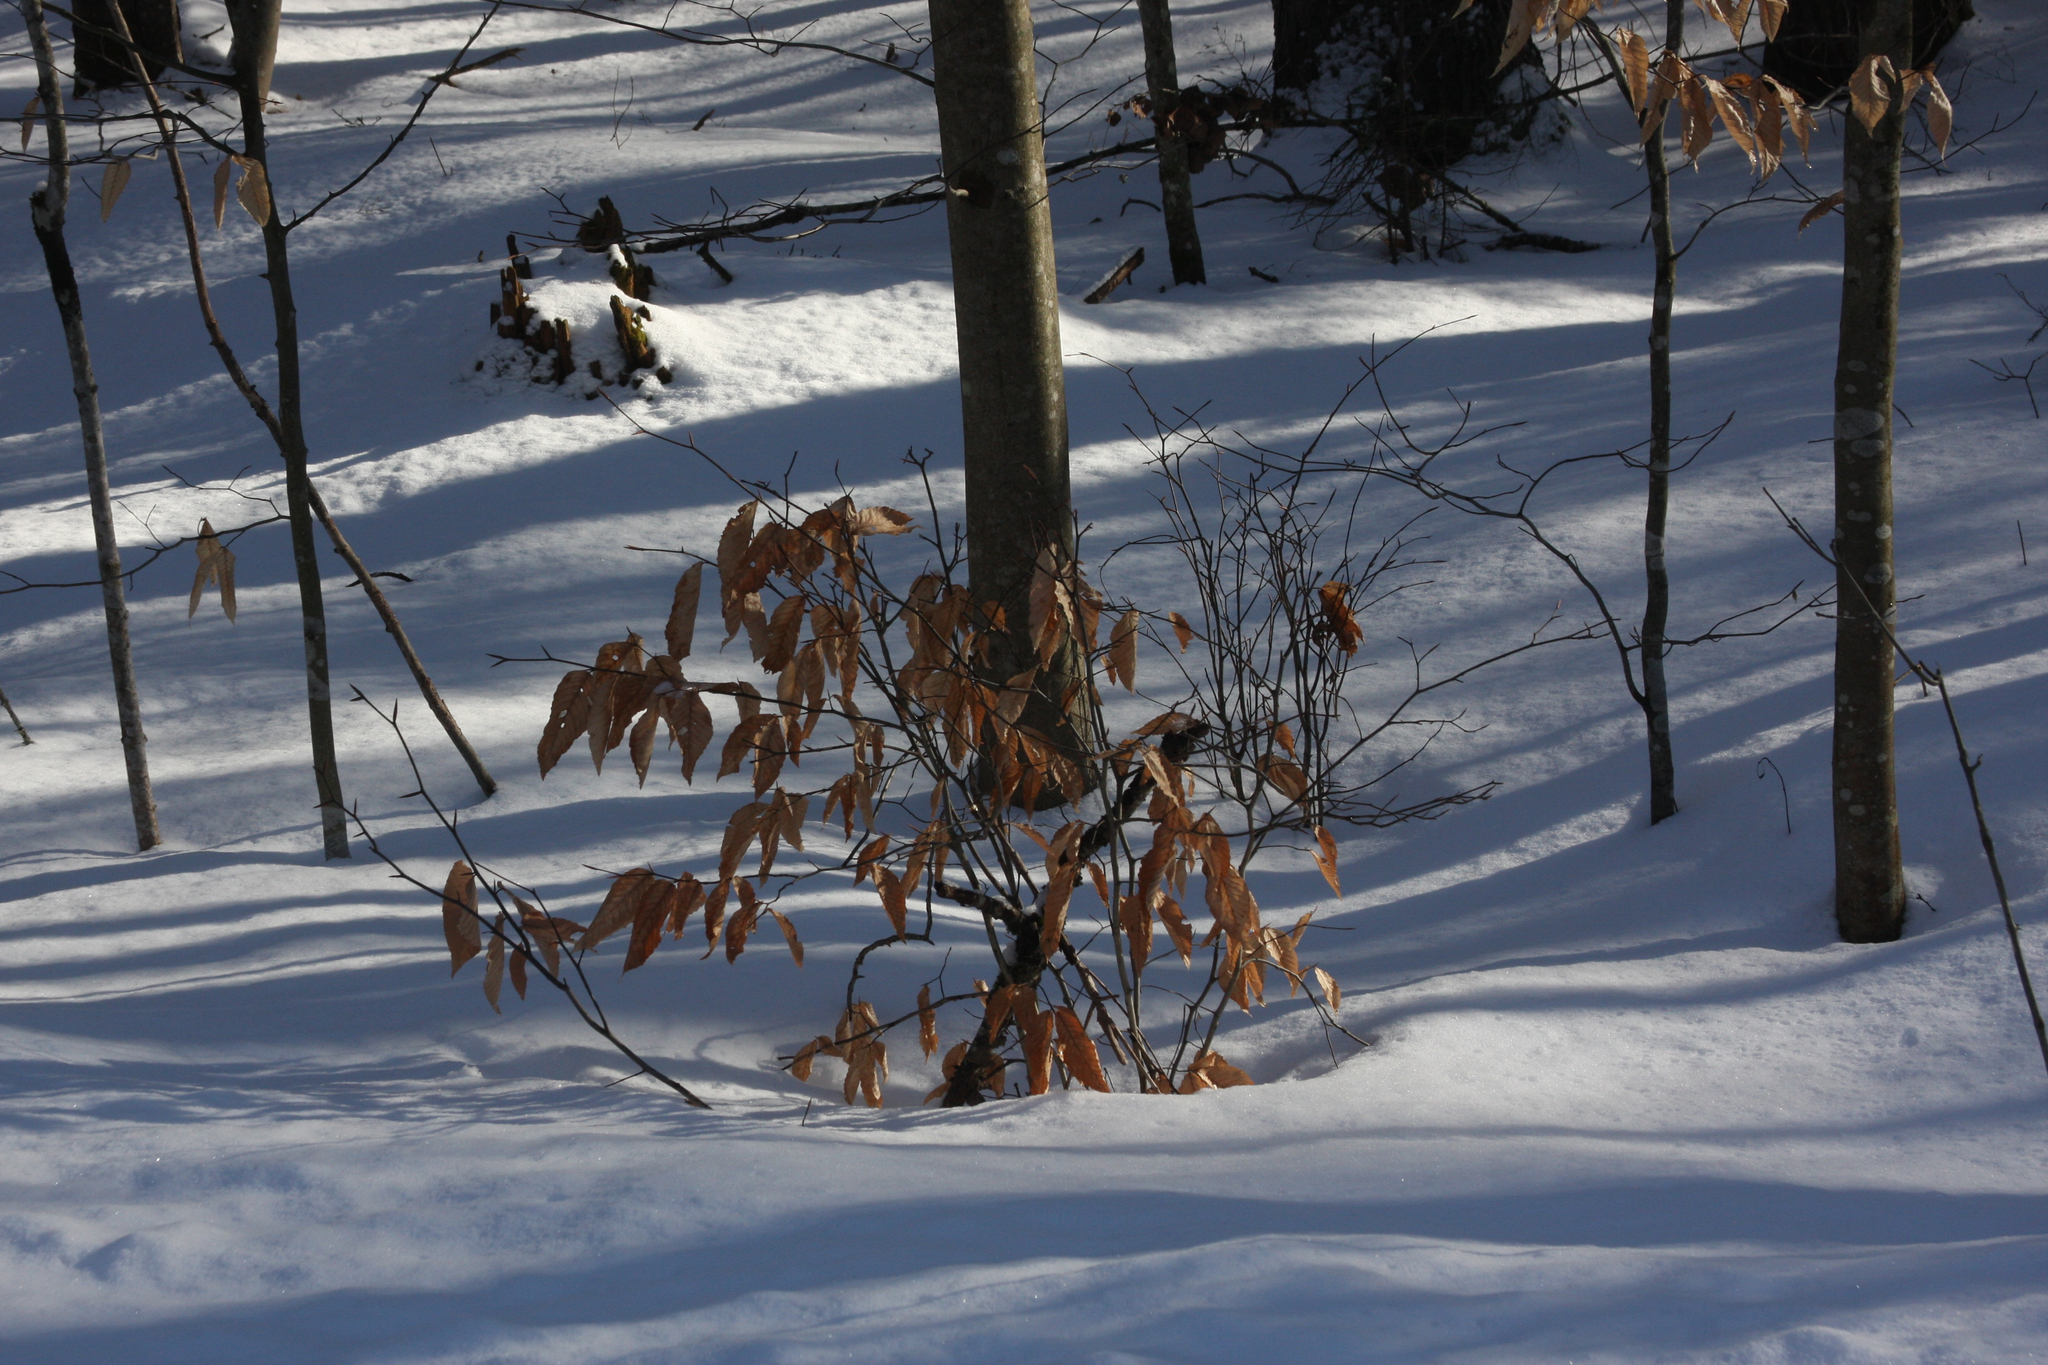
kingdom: Plantae
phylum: Tracheophyta
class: Magnoliopsida
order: Fagales
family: Fagaceae
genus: Fagus
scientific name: Fagus grandifolia
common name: American beech
